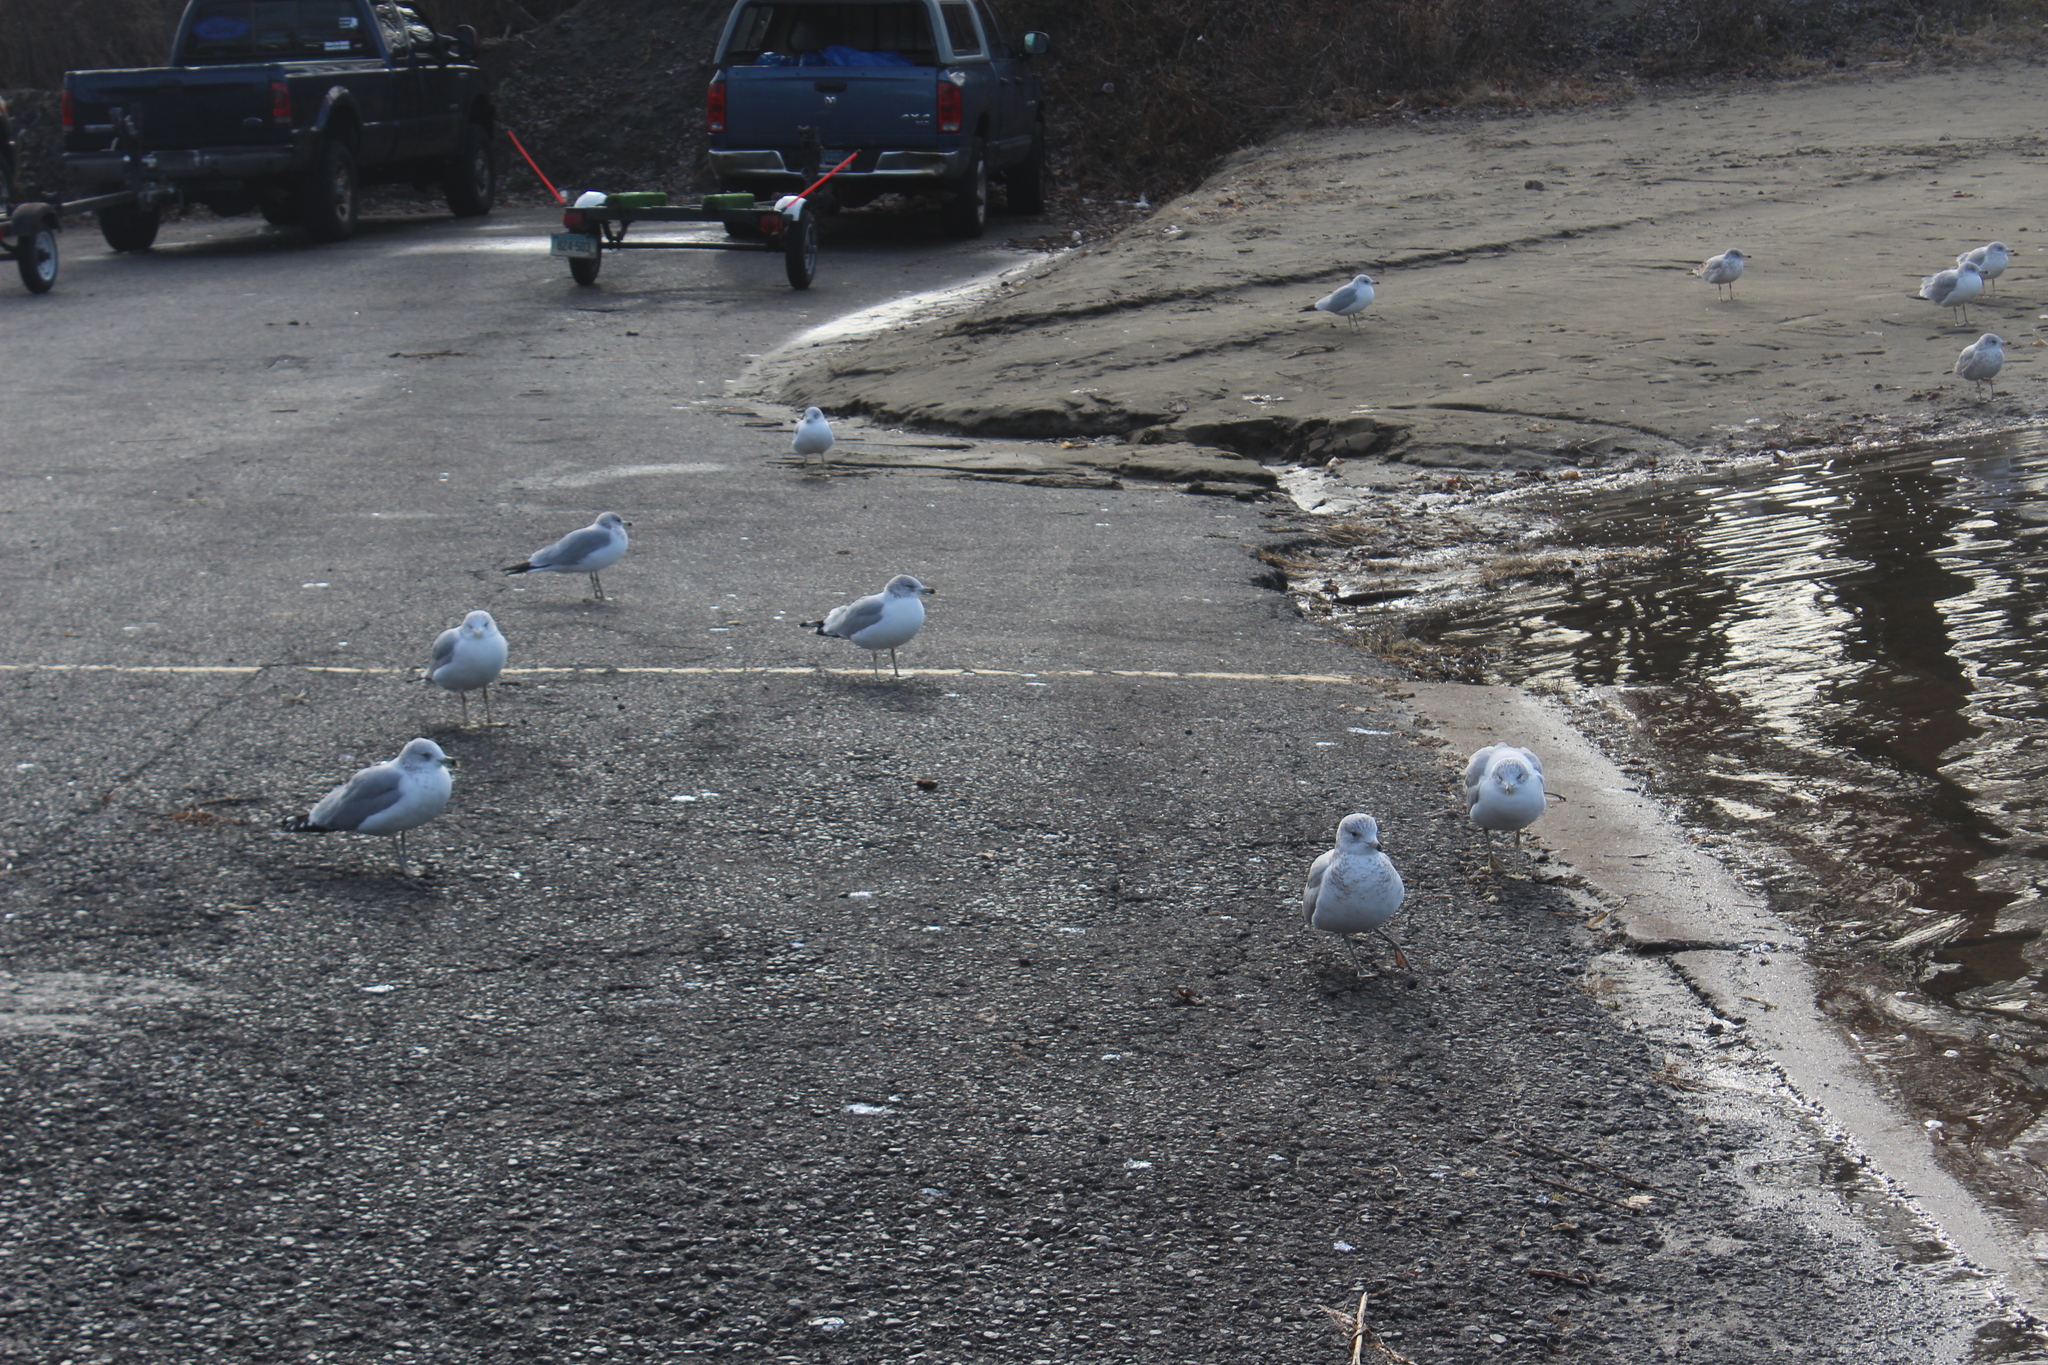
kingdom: Animalia
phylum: Chordata
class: Aves
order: Charadriiformes
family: Laridae
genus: Larus
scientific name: Larus delawarensis
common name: Ring-billed gull
